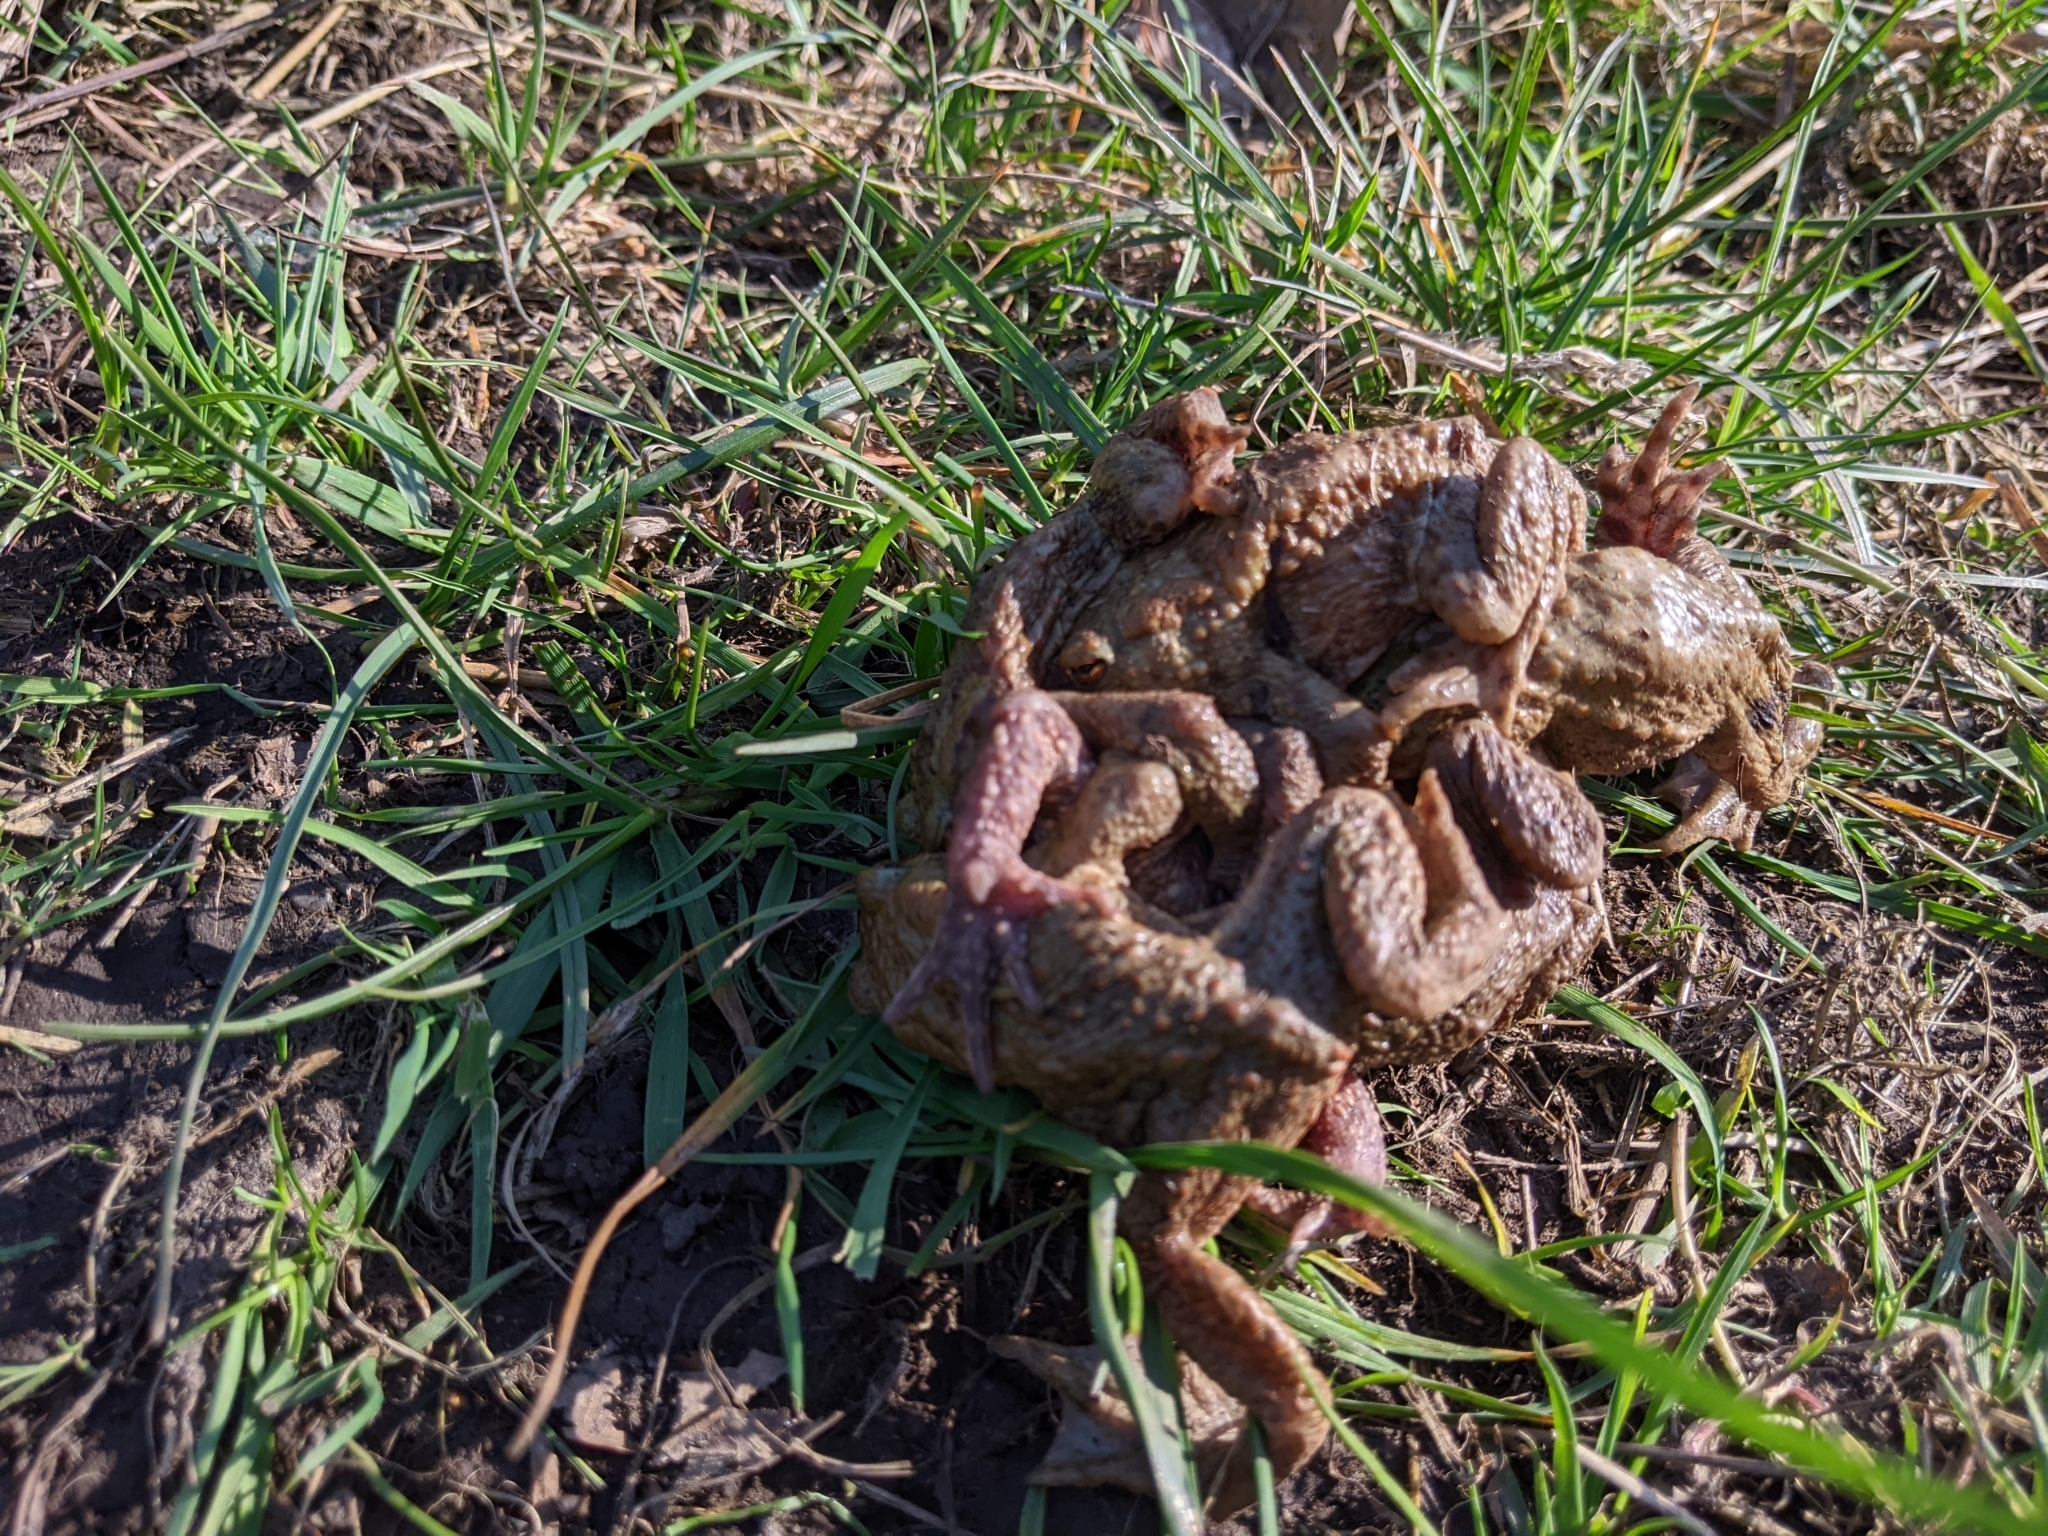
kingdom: Animalia
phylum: Chordata
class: Amphibia
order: Anura
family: Bufonidae
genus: Bufo
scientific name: Bufo bufo
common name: Common toad
